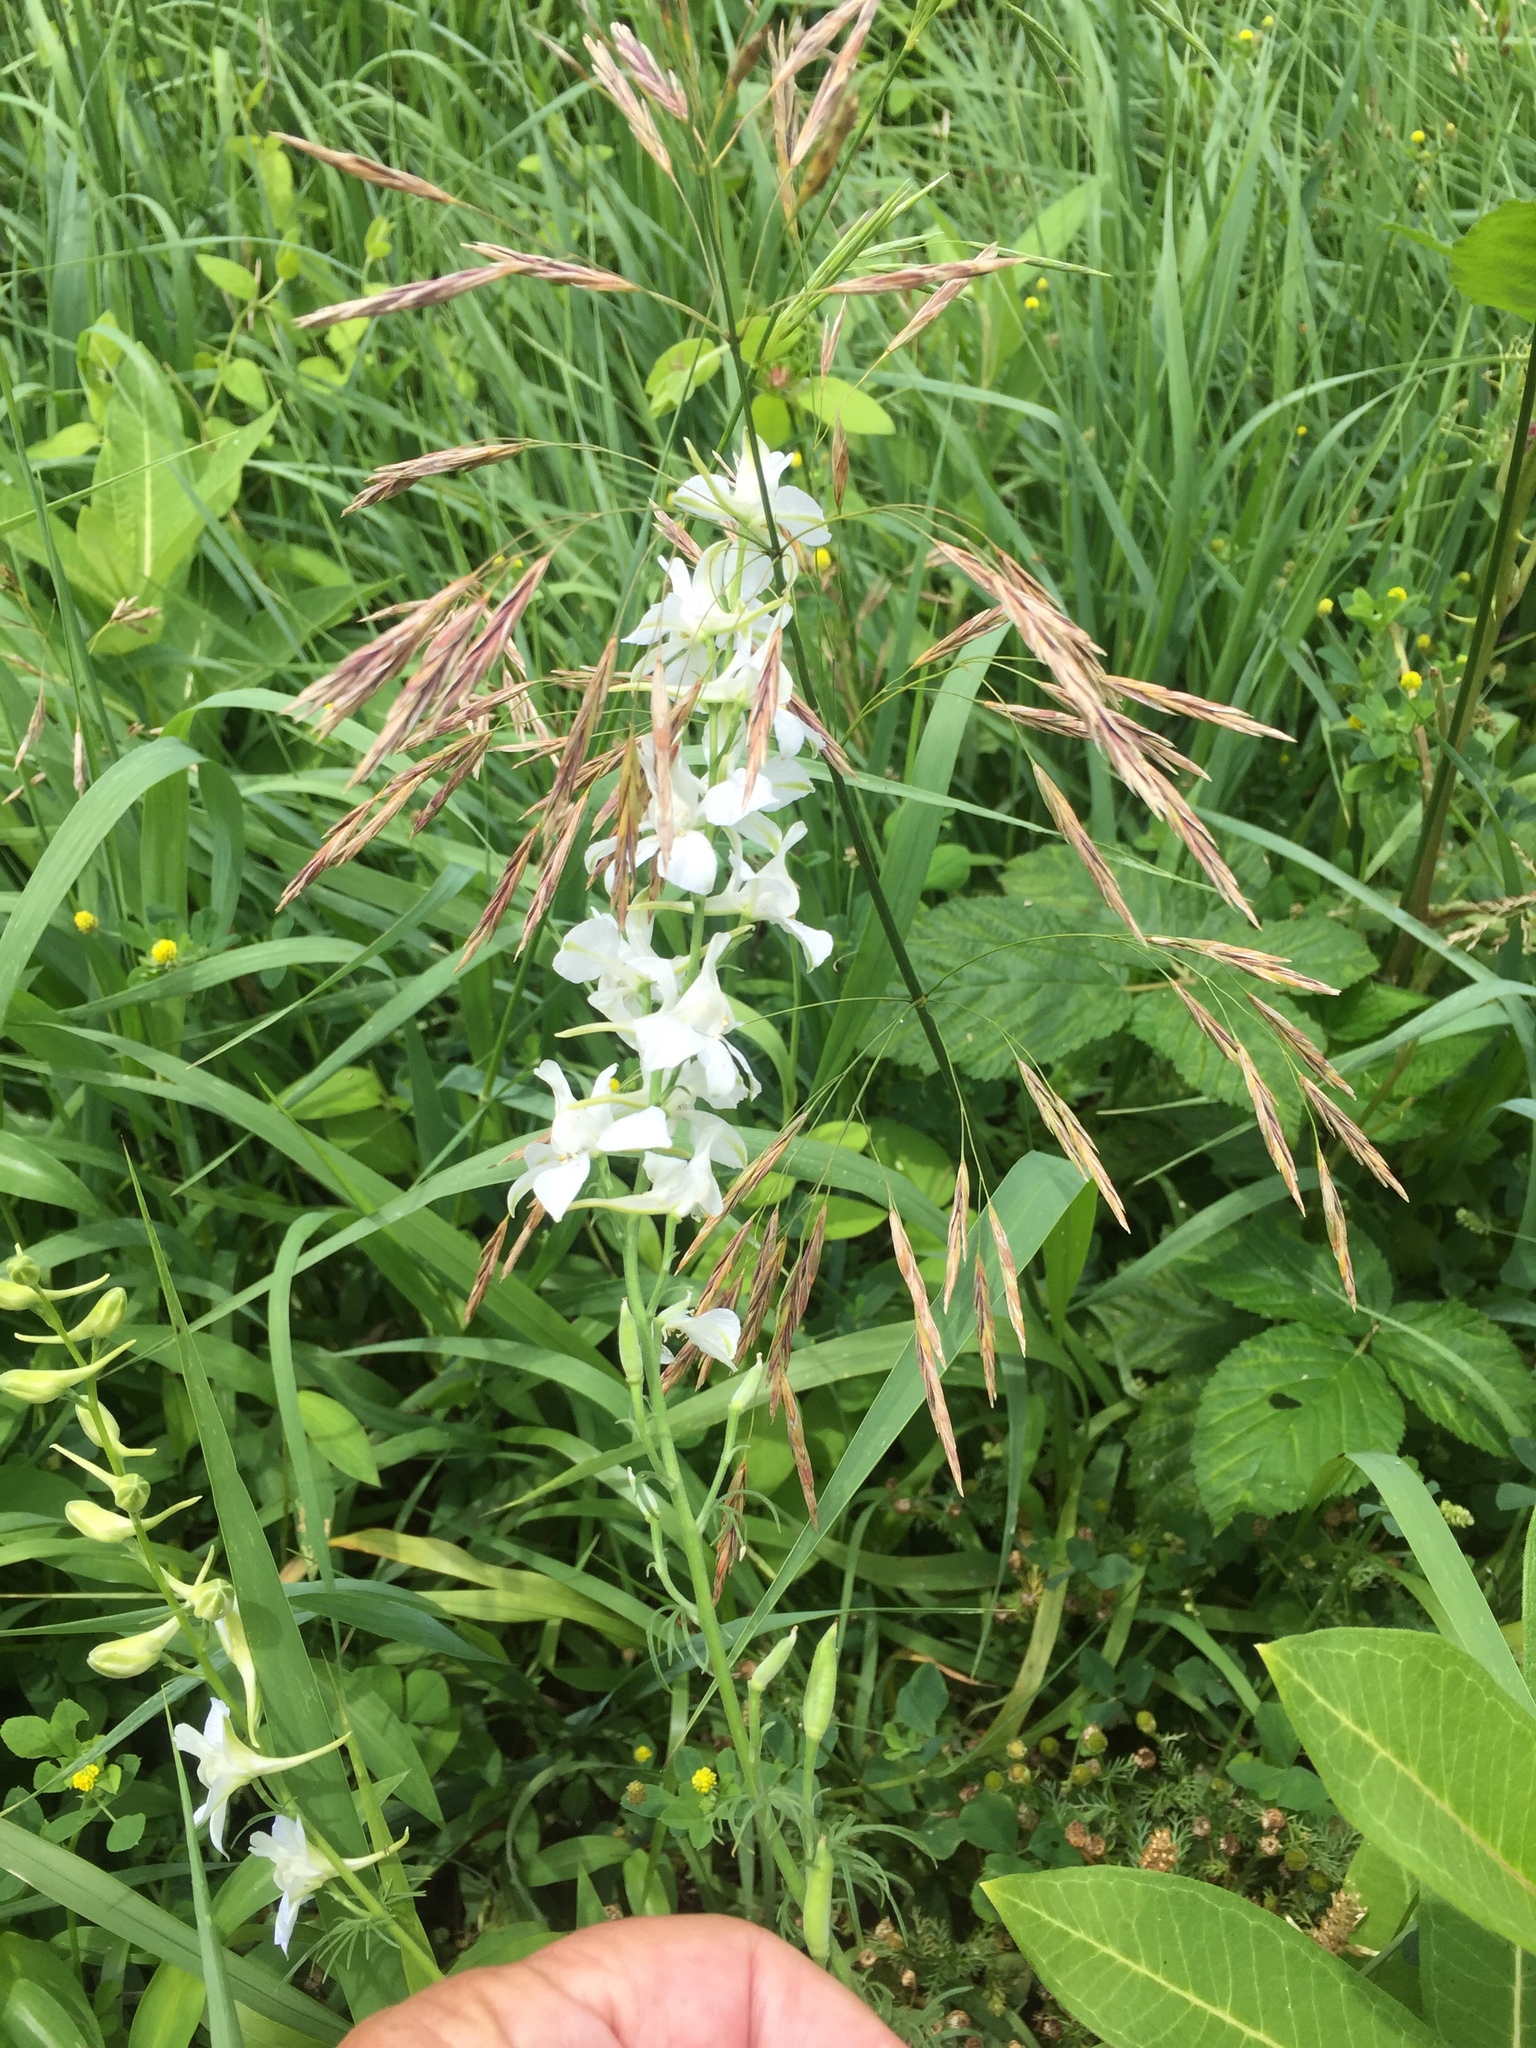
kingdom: Plantae
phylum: Tracheophyta
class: Magnoliopsida
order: Ranunculales
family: Ranunculaceae
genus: Delphinium
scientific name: Delphinium ajacis
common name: Doubtful knight's-spur
